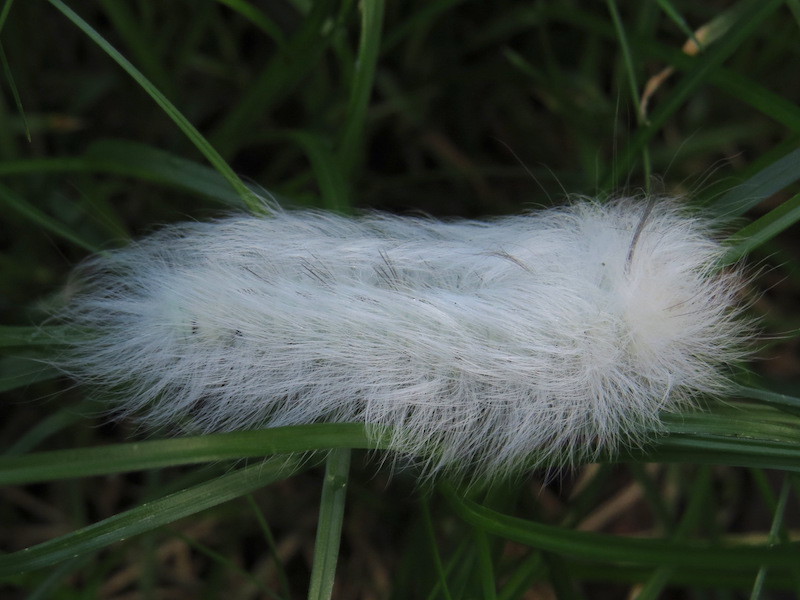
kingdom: Animalia
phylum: Arthropoda
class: Insecta
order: Lepidoptera
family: Apatelodidae
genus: Hygrochroa
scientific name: Hygrochroa Apatelodes torrefacta
